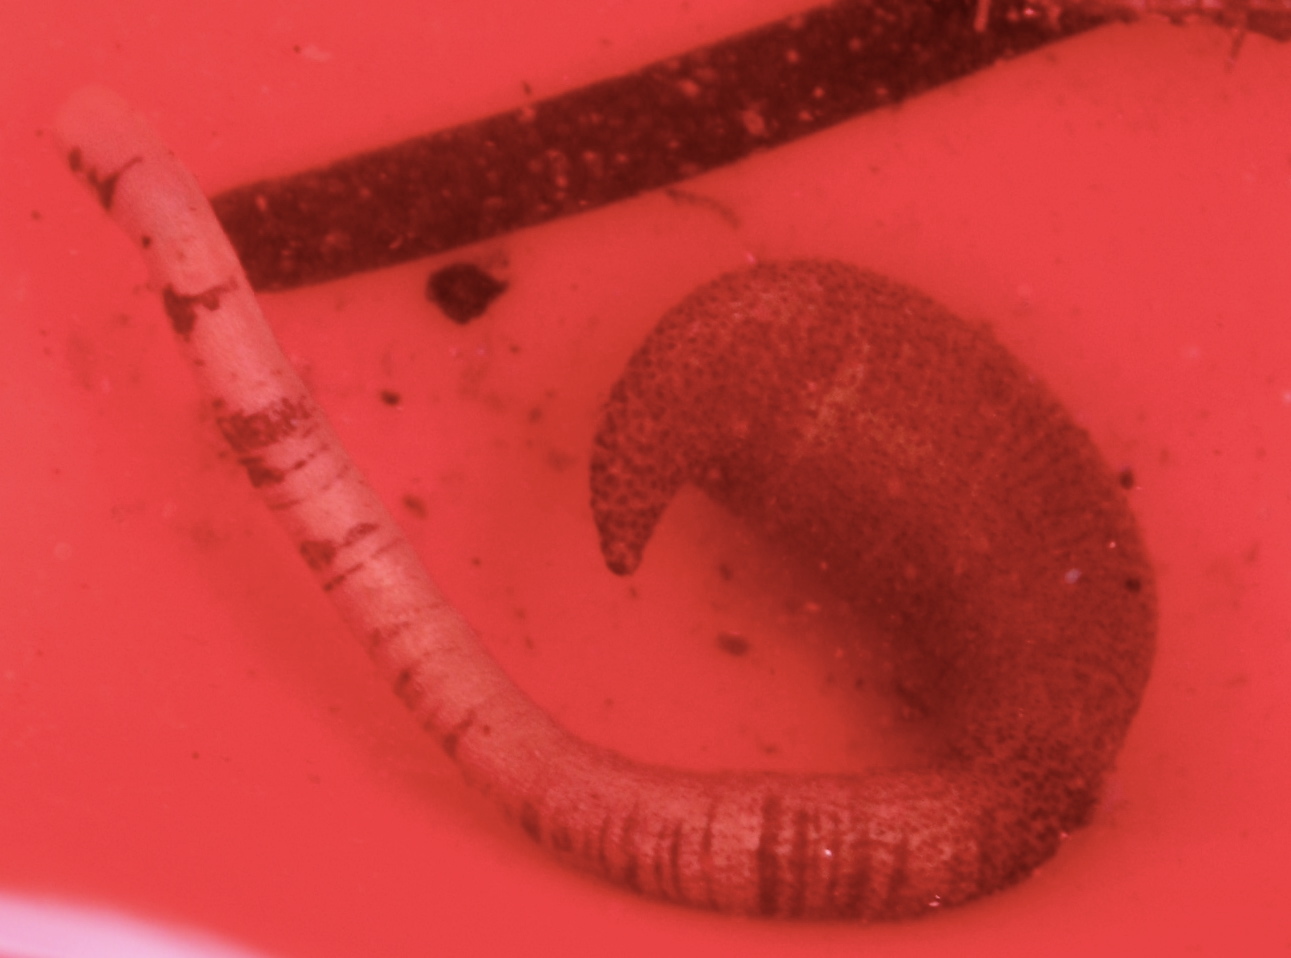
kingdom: Animalia
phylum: Sipuncula
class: Phascolosomatidea
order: Phascolosomatiformes
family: Phascolosomatidae
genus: Phascolosoma
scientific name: Phascolosoma agassizii
